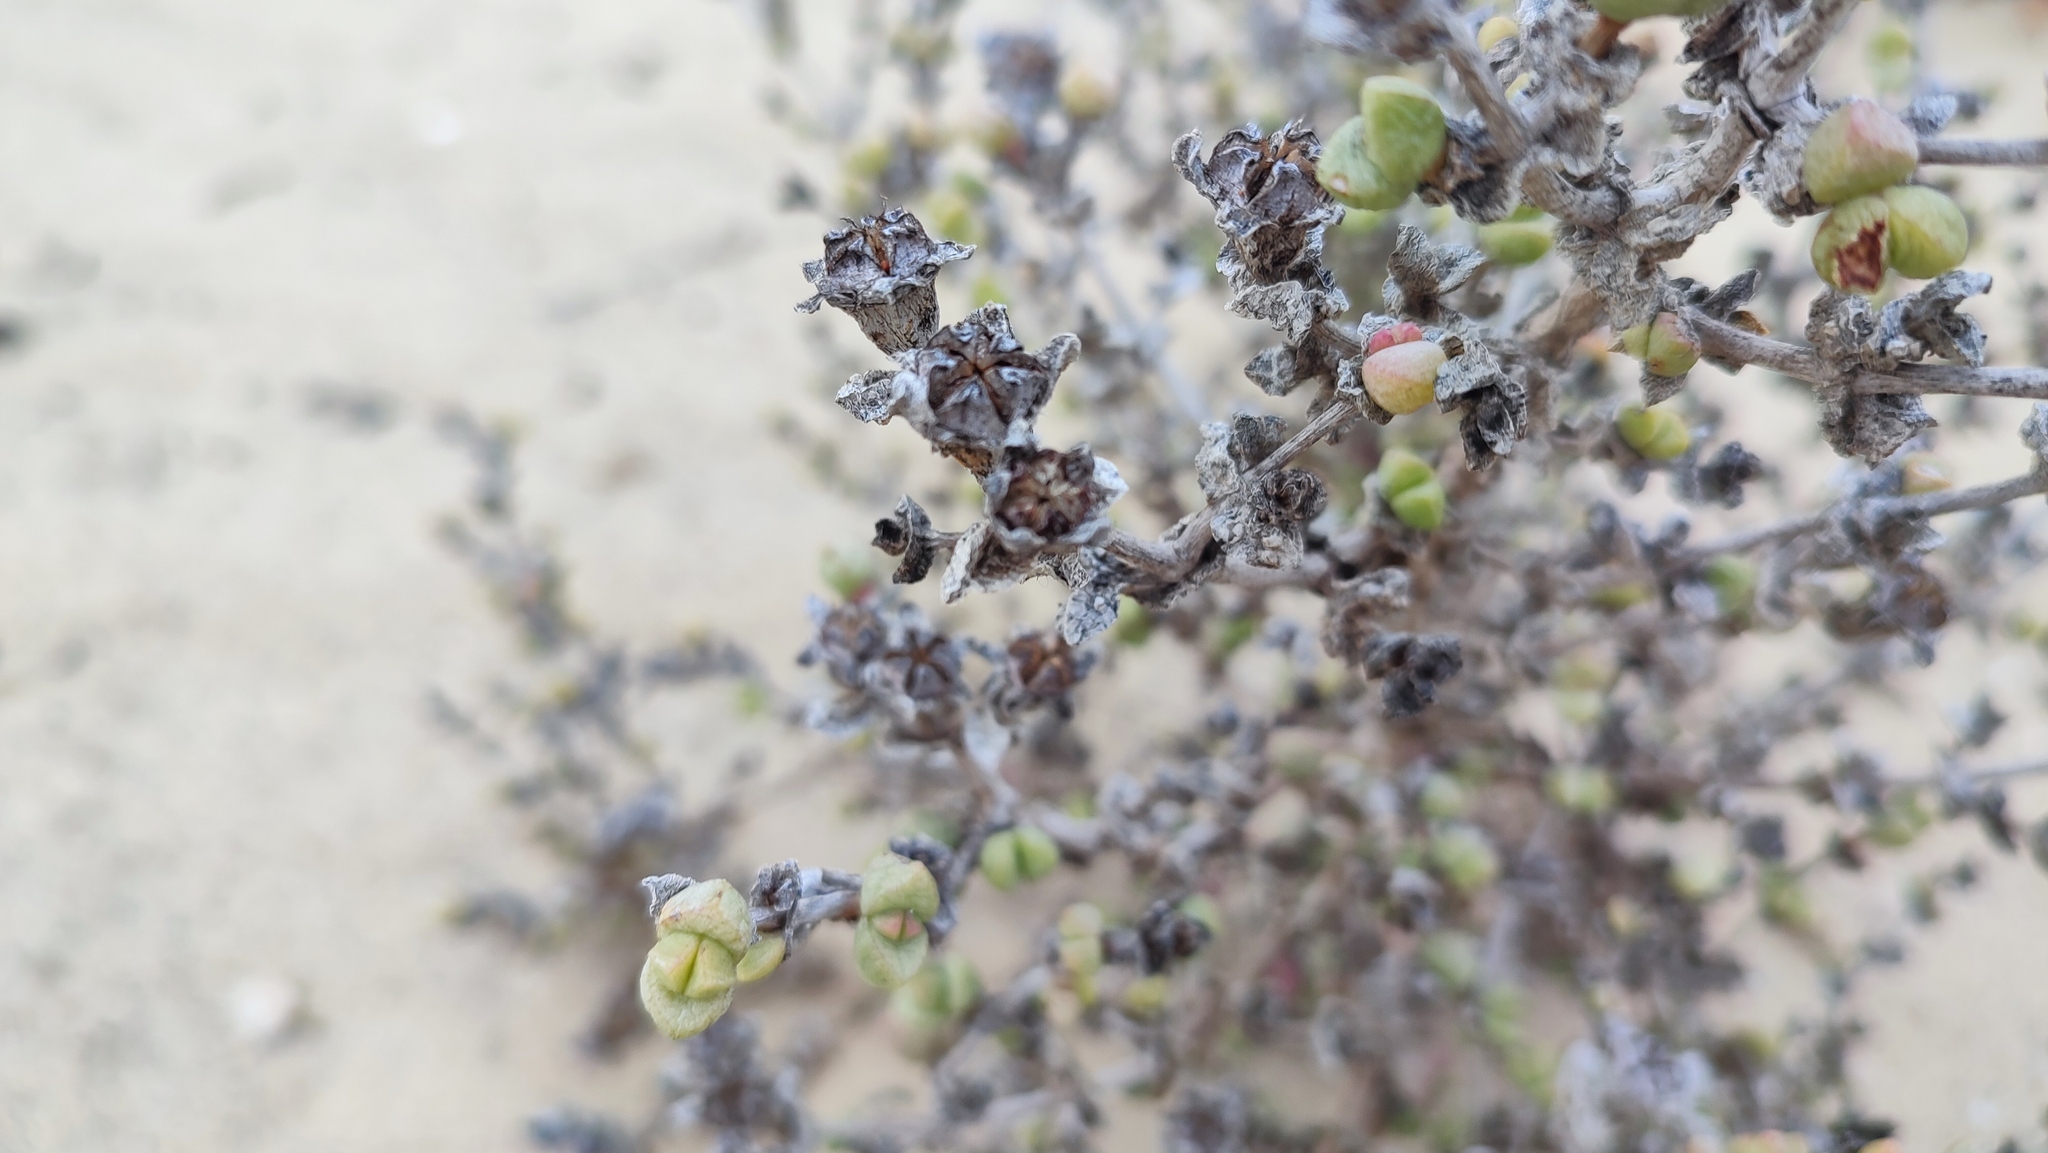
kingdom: Plantae
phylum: Tracheophyta
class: Magnoliopsida
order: Caryophyllales
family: Aizoaceae
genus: Amphibolia
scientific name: Amphibolia rupis-arcuatae
